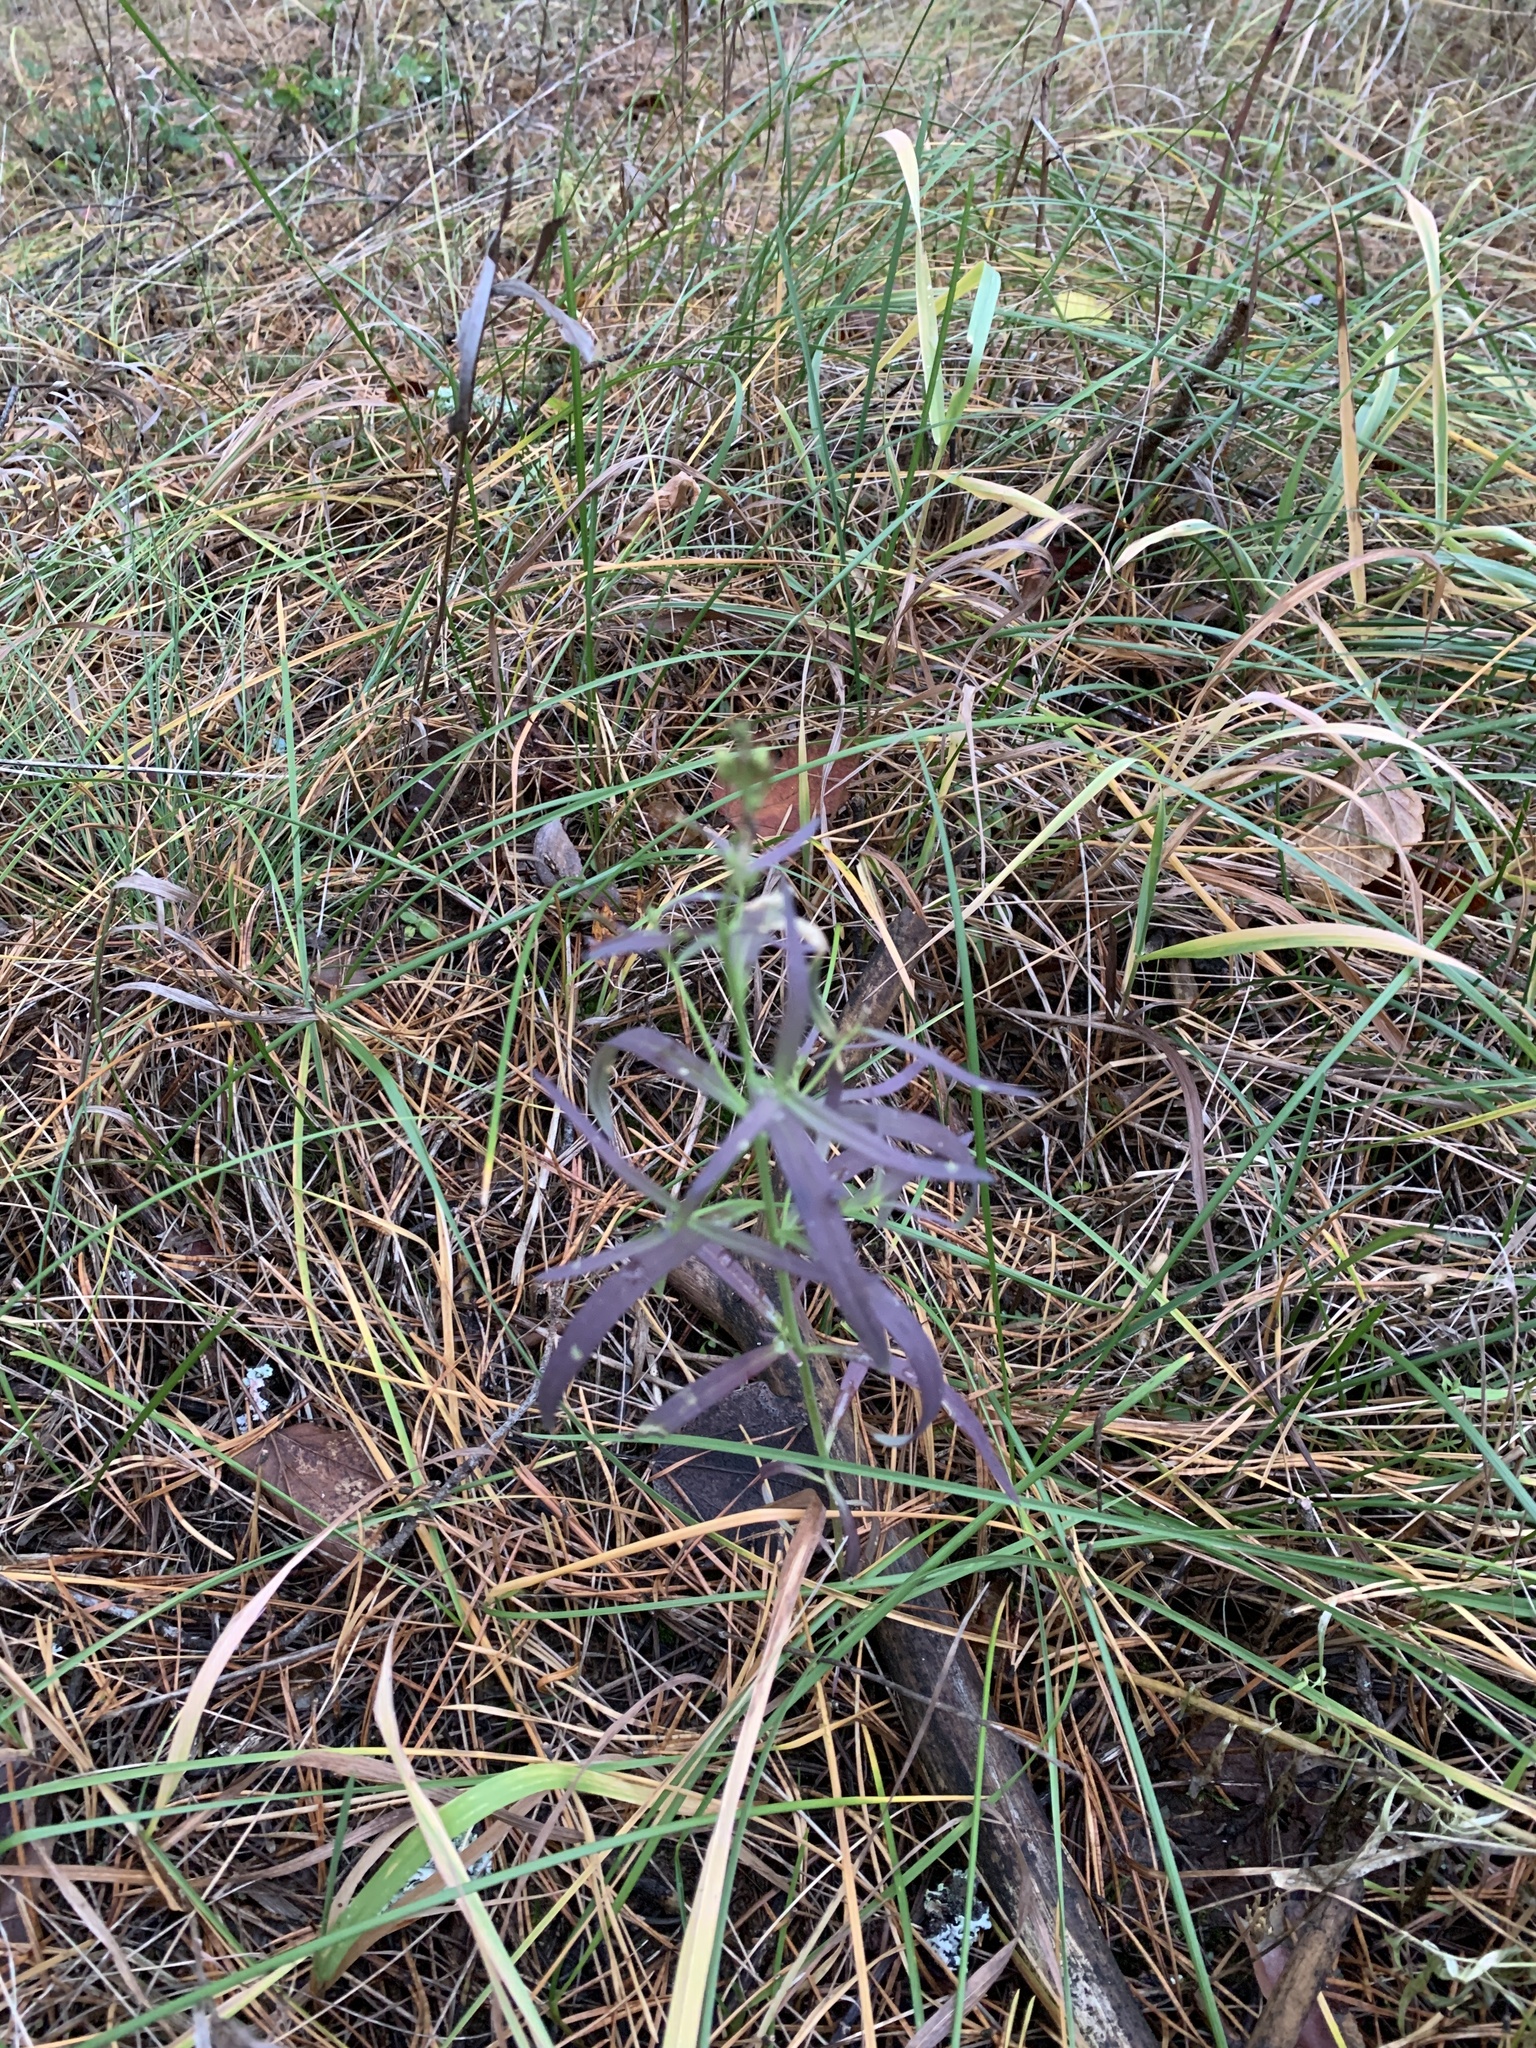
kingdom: Plantae
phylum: Tracheophyta
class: Magnoliopsida
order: Lamiales
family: Plantaginaceae
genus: Linaria
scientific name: Linaria vulgaris
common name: Butter and eggs
